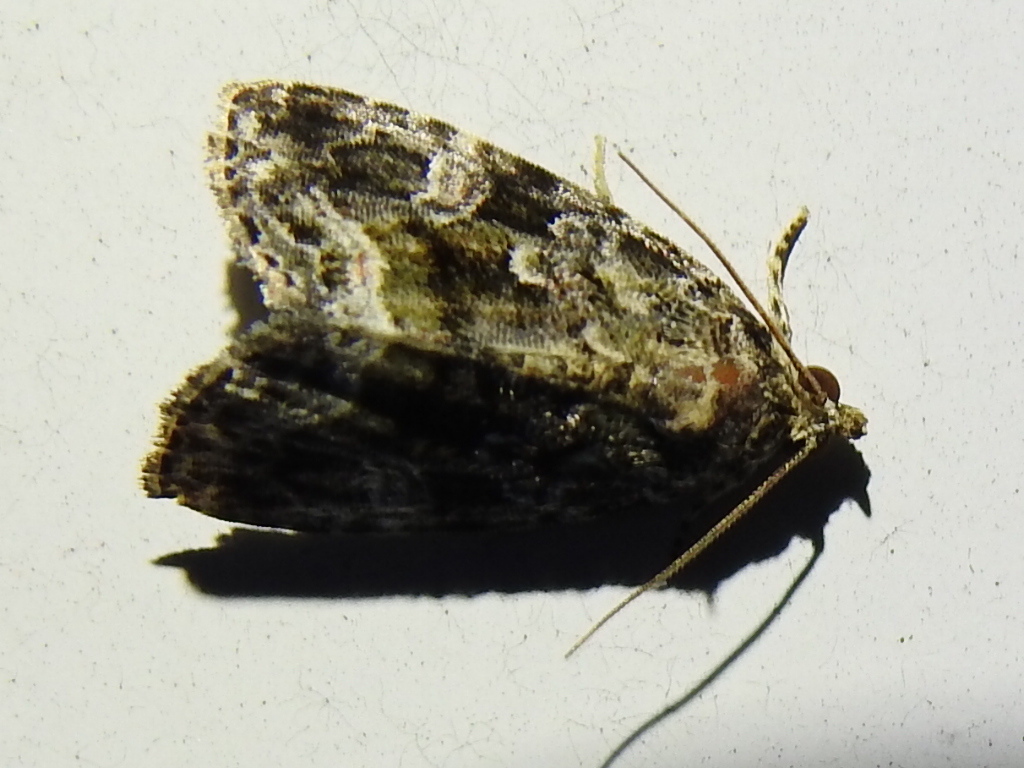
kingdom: Animalia
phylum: Arthropoda
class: Insecta
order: Lepidoptera
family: Noctuidae
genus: Protodeltote
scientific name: Protodeltote muscosula
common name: Large mossy glyph
